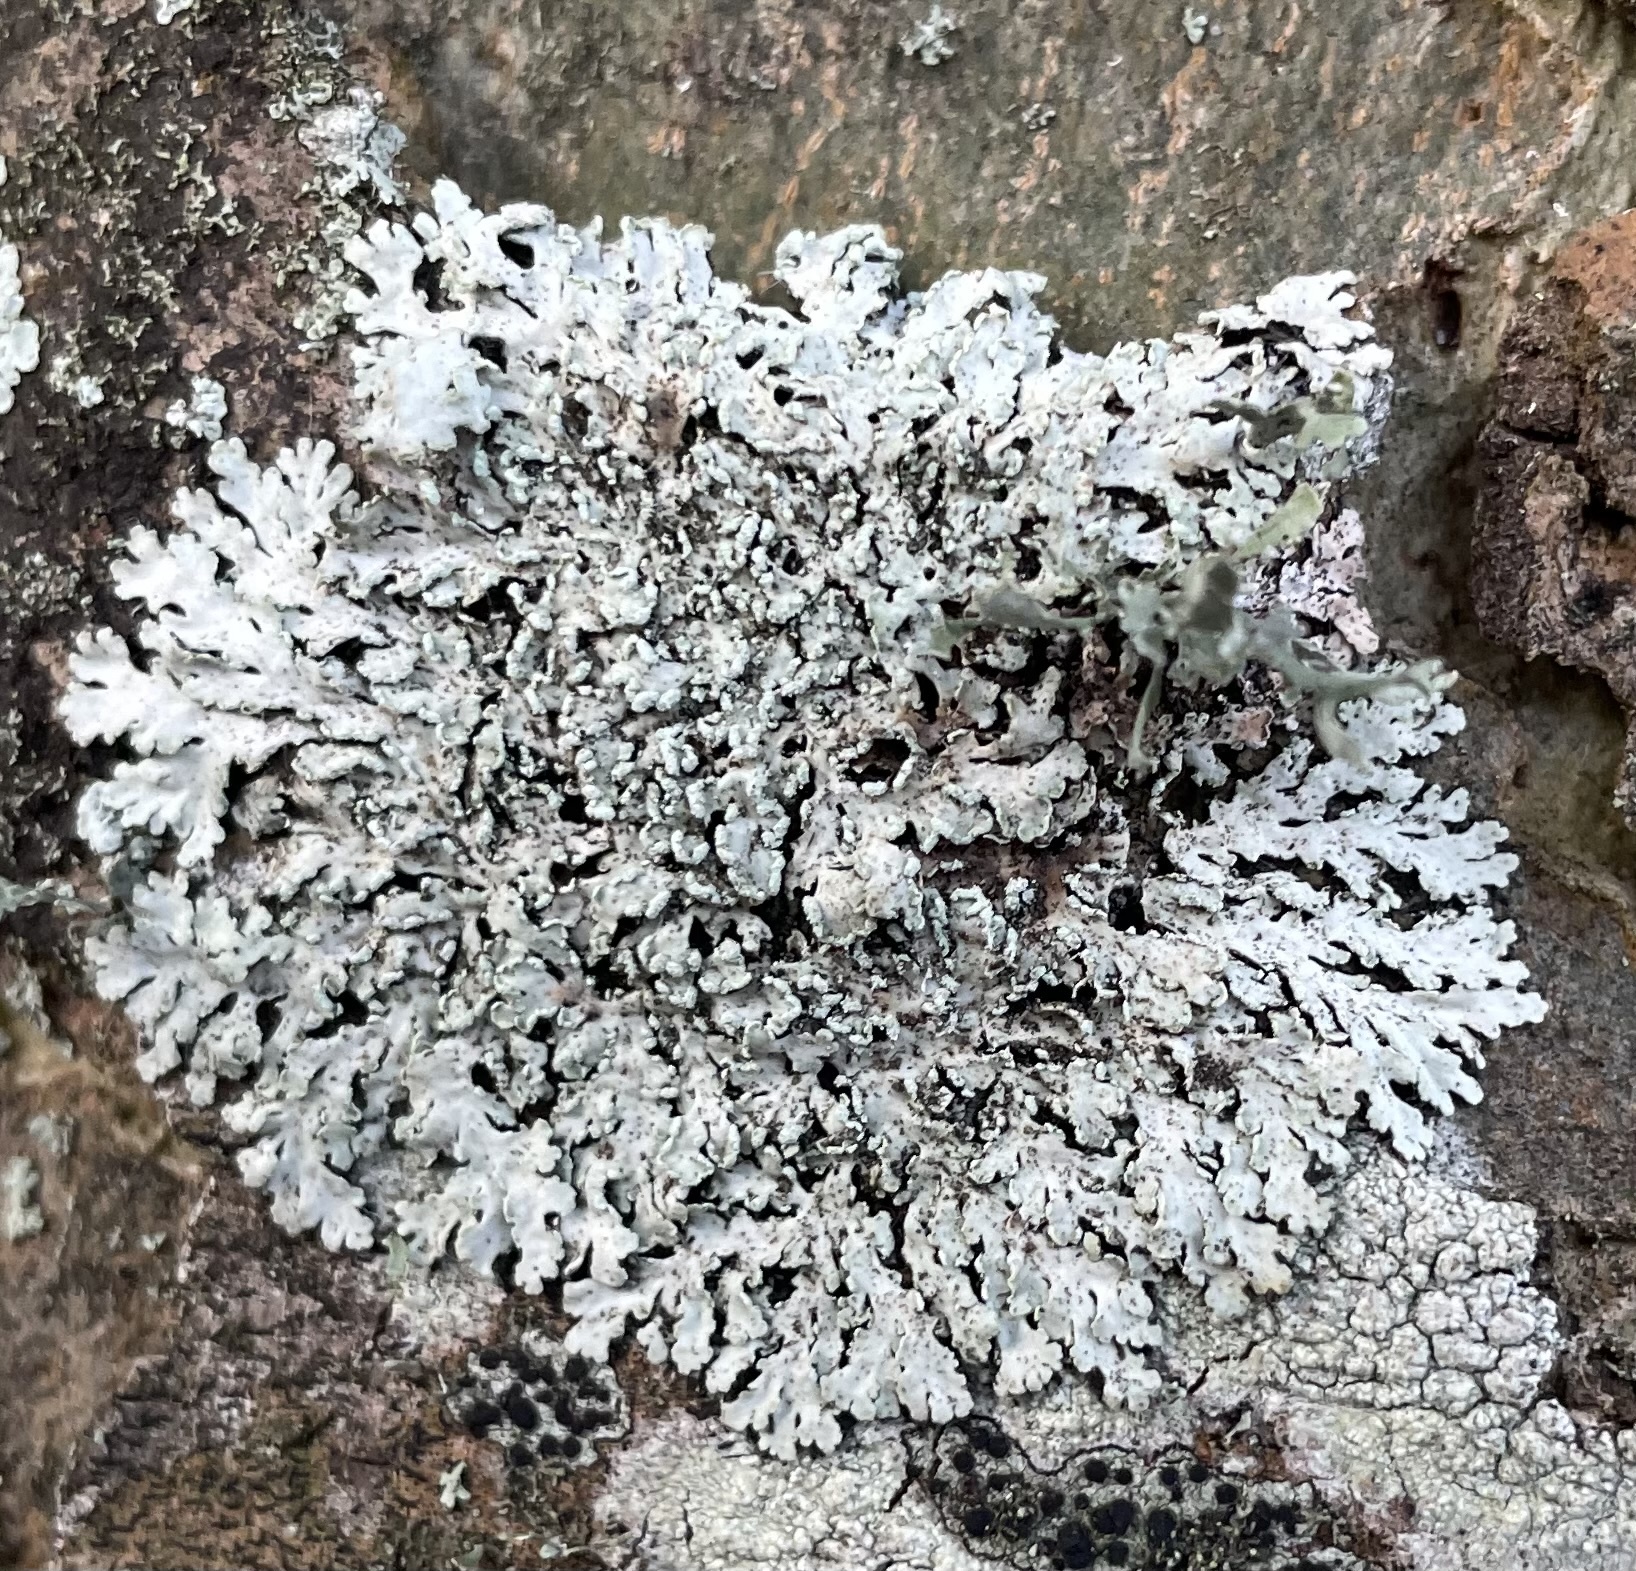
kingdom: Fungi
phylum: Ascomycota
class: Lecanoromycetes
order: Caliciales
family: Physciaceae
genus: Heterodermia
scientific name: Heterodermia speciosa
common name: Powdered fringe lichen
